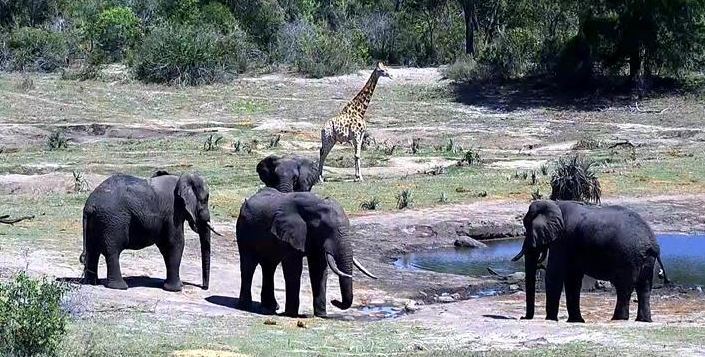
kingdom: Animalia
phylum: Chordata
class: Mammalia
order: Artiodactyla
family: Giraffidae
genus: Giraffa
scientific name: Giraffa giraffa
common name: Southern giraffe
